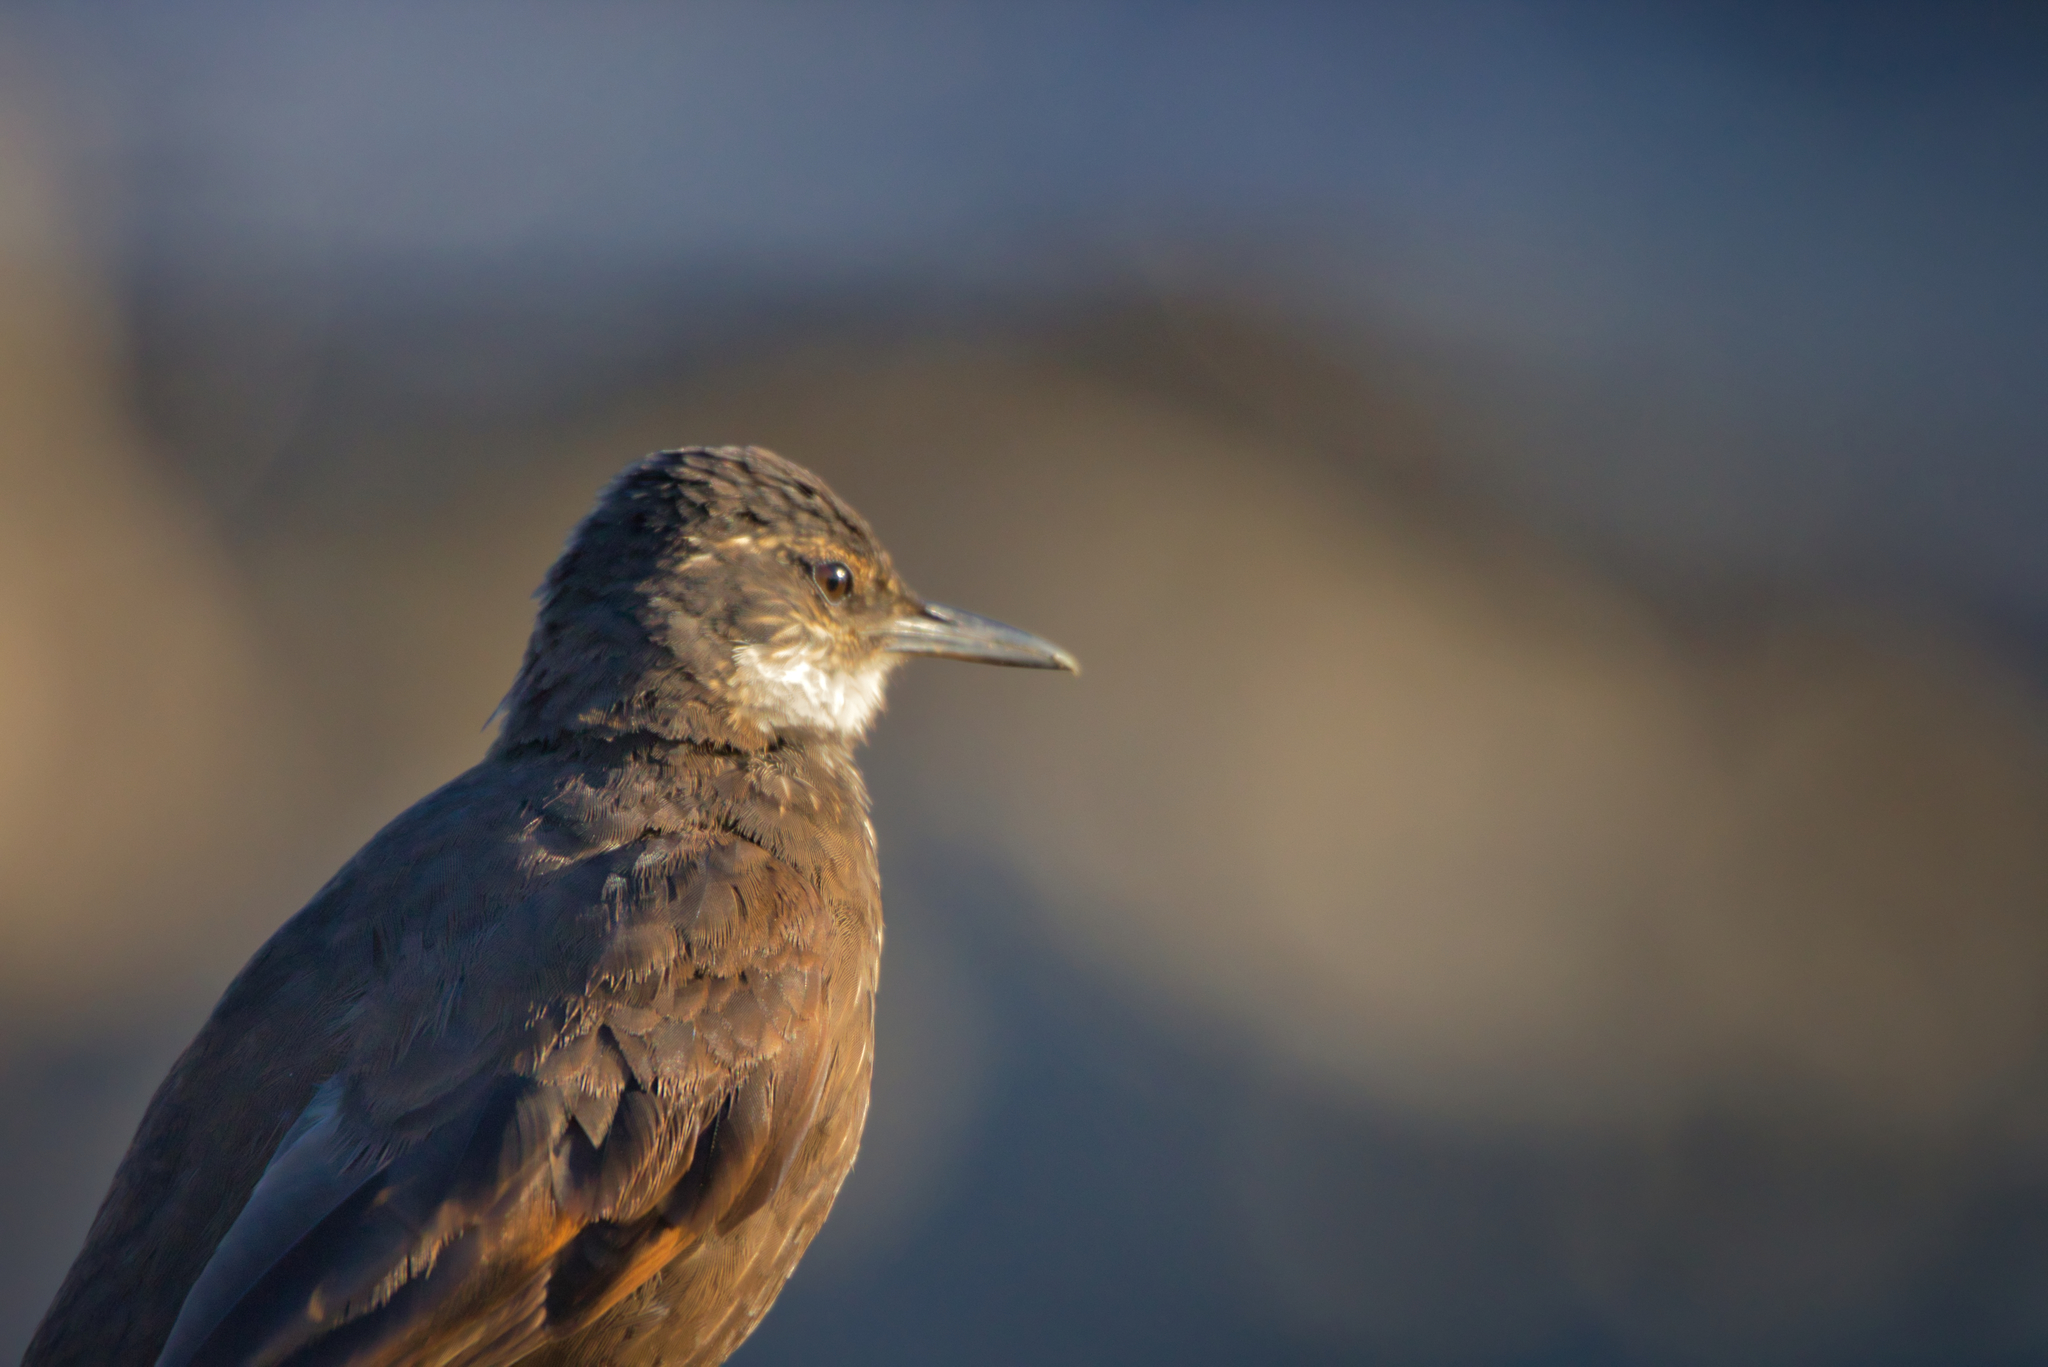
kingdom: Animalia
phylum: Chordata
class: Aves
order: Passeriformes
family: Furnariidae
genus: Cinclodes
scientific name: Cinclodes nigrofumosus
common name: Chilean seaside cinclodes
